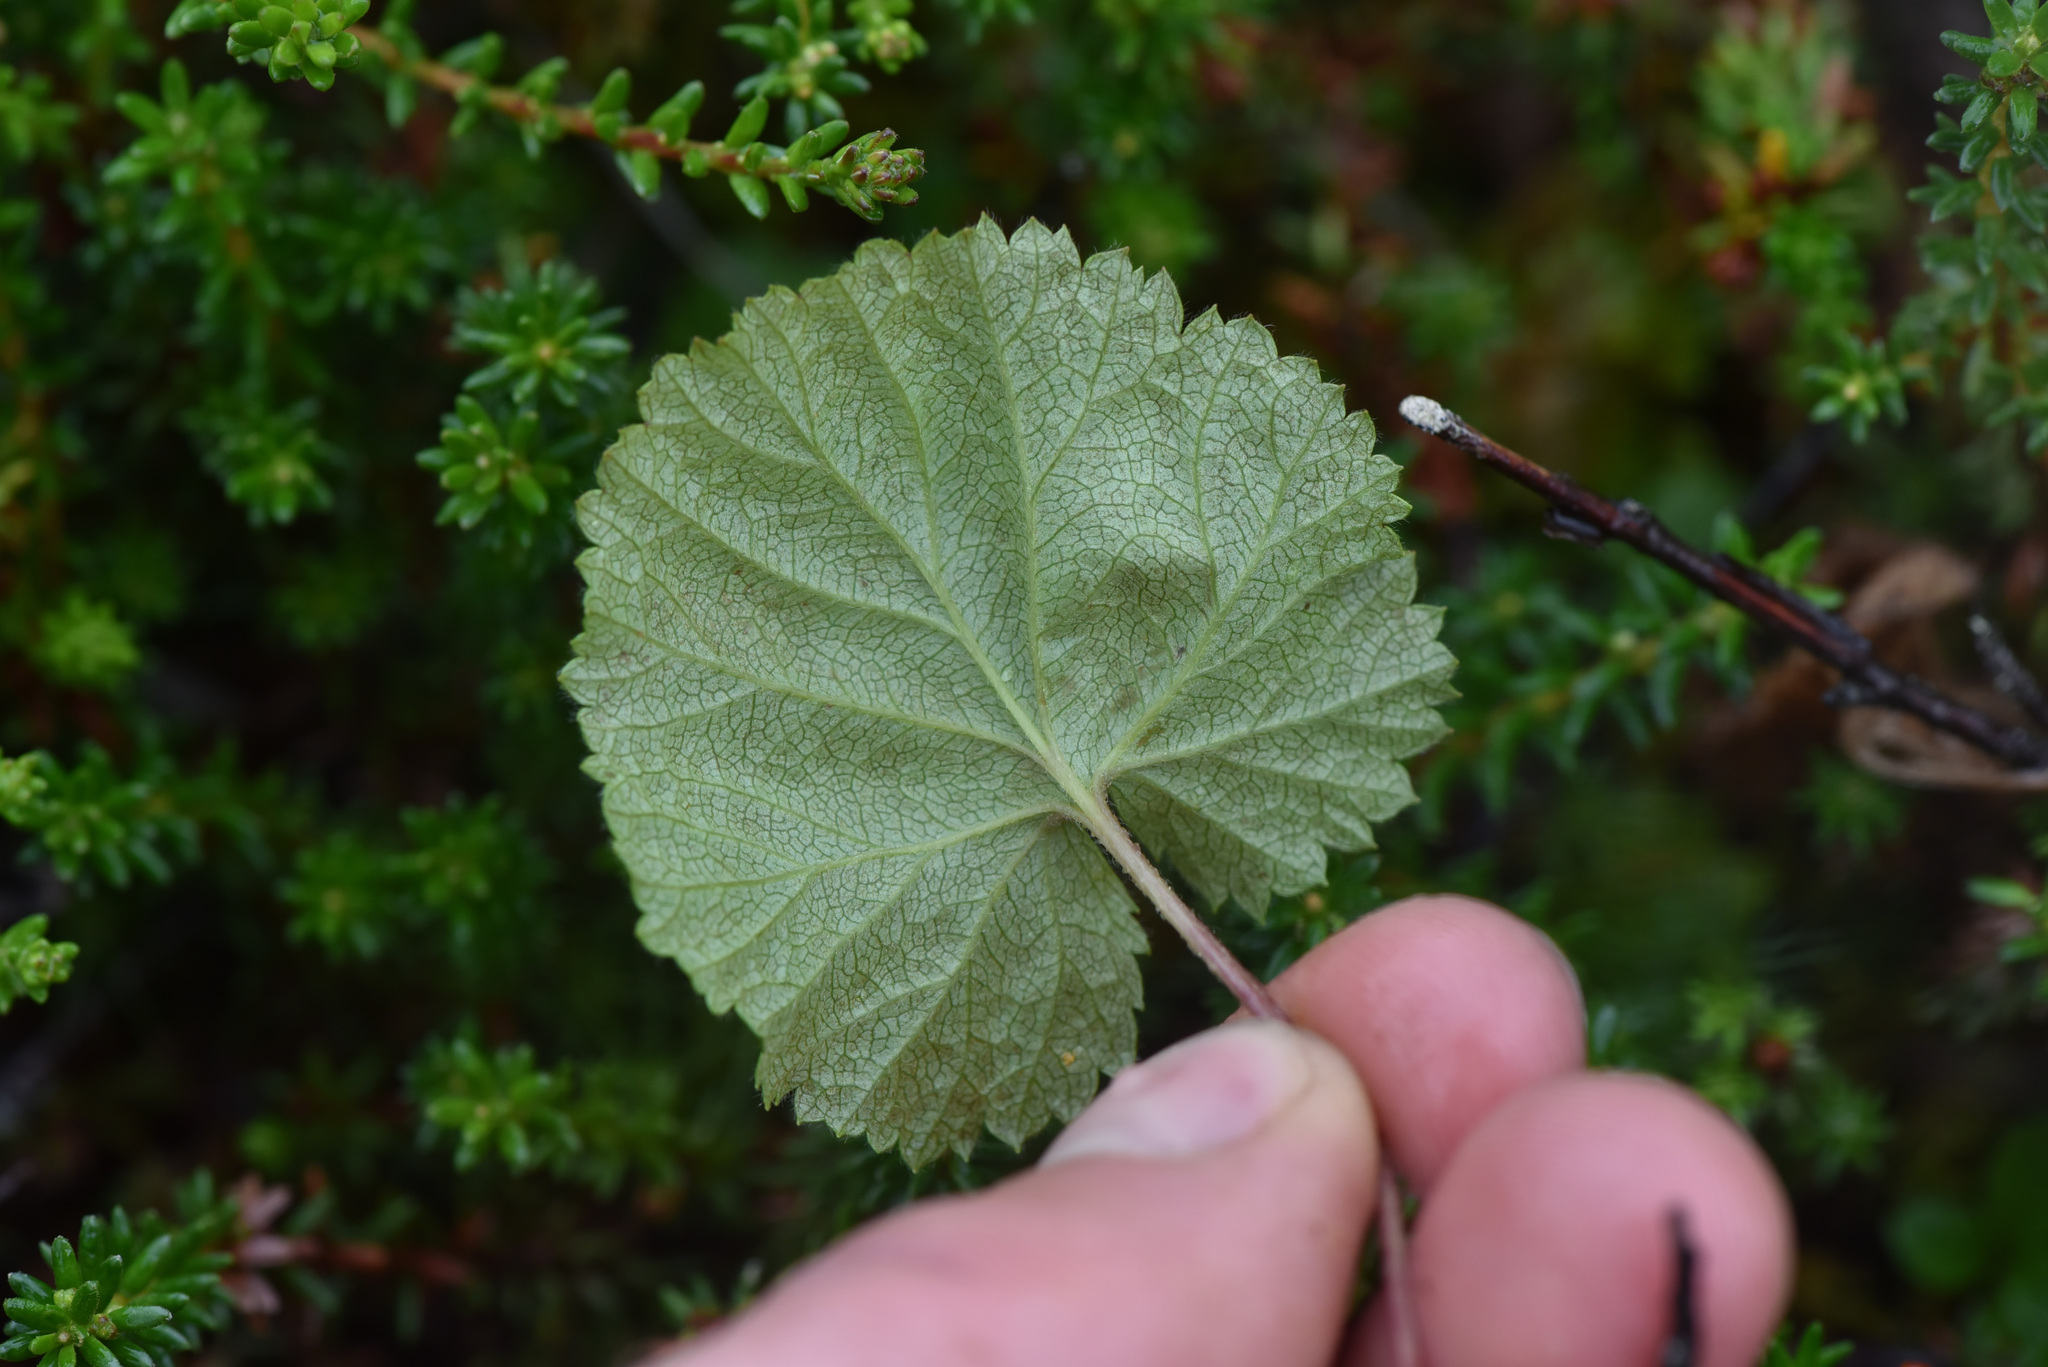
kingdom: Plantae
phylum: Tracheophyta
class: Magnoliopsida
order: Saxifragales
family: Saxifragaceae
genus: Pectiantia
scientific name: Pectiantia pentandra
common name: Alpine bishop's-cap
